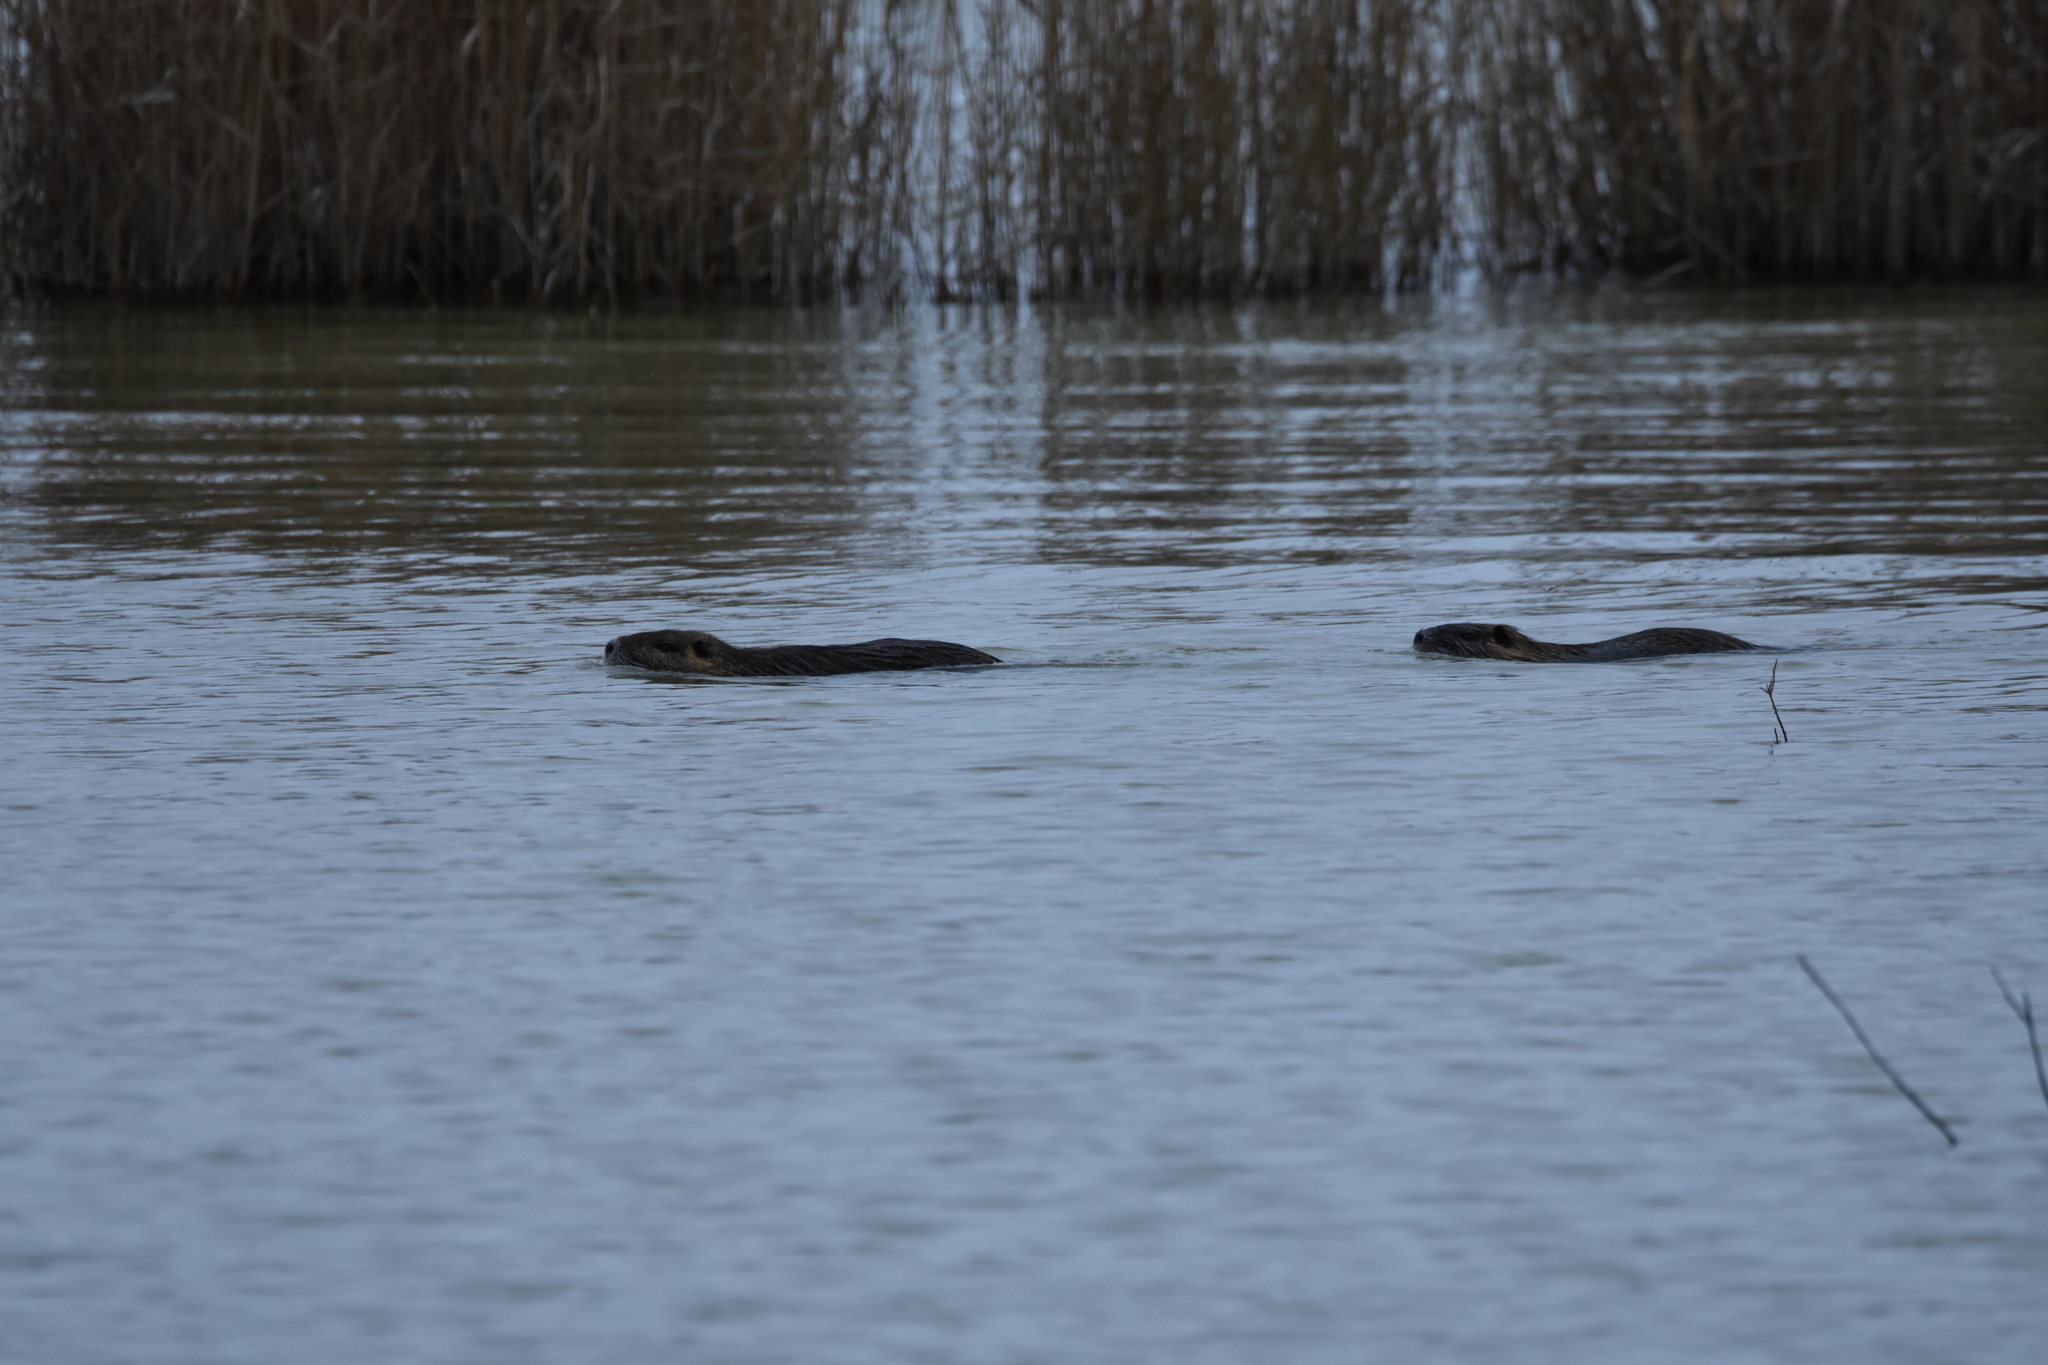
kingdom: Animalia
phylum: Chordata
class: Mammalia
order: Rodentia
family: Myocastoridae
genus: Myocastor
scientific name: Myocastor coypus
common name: Coypu
